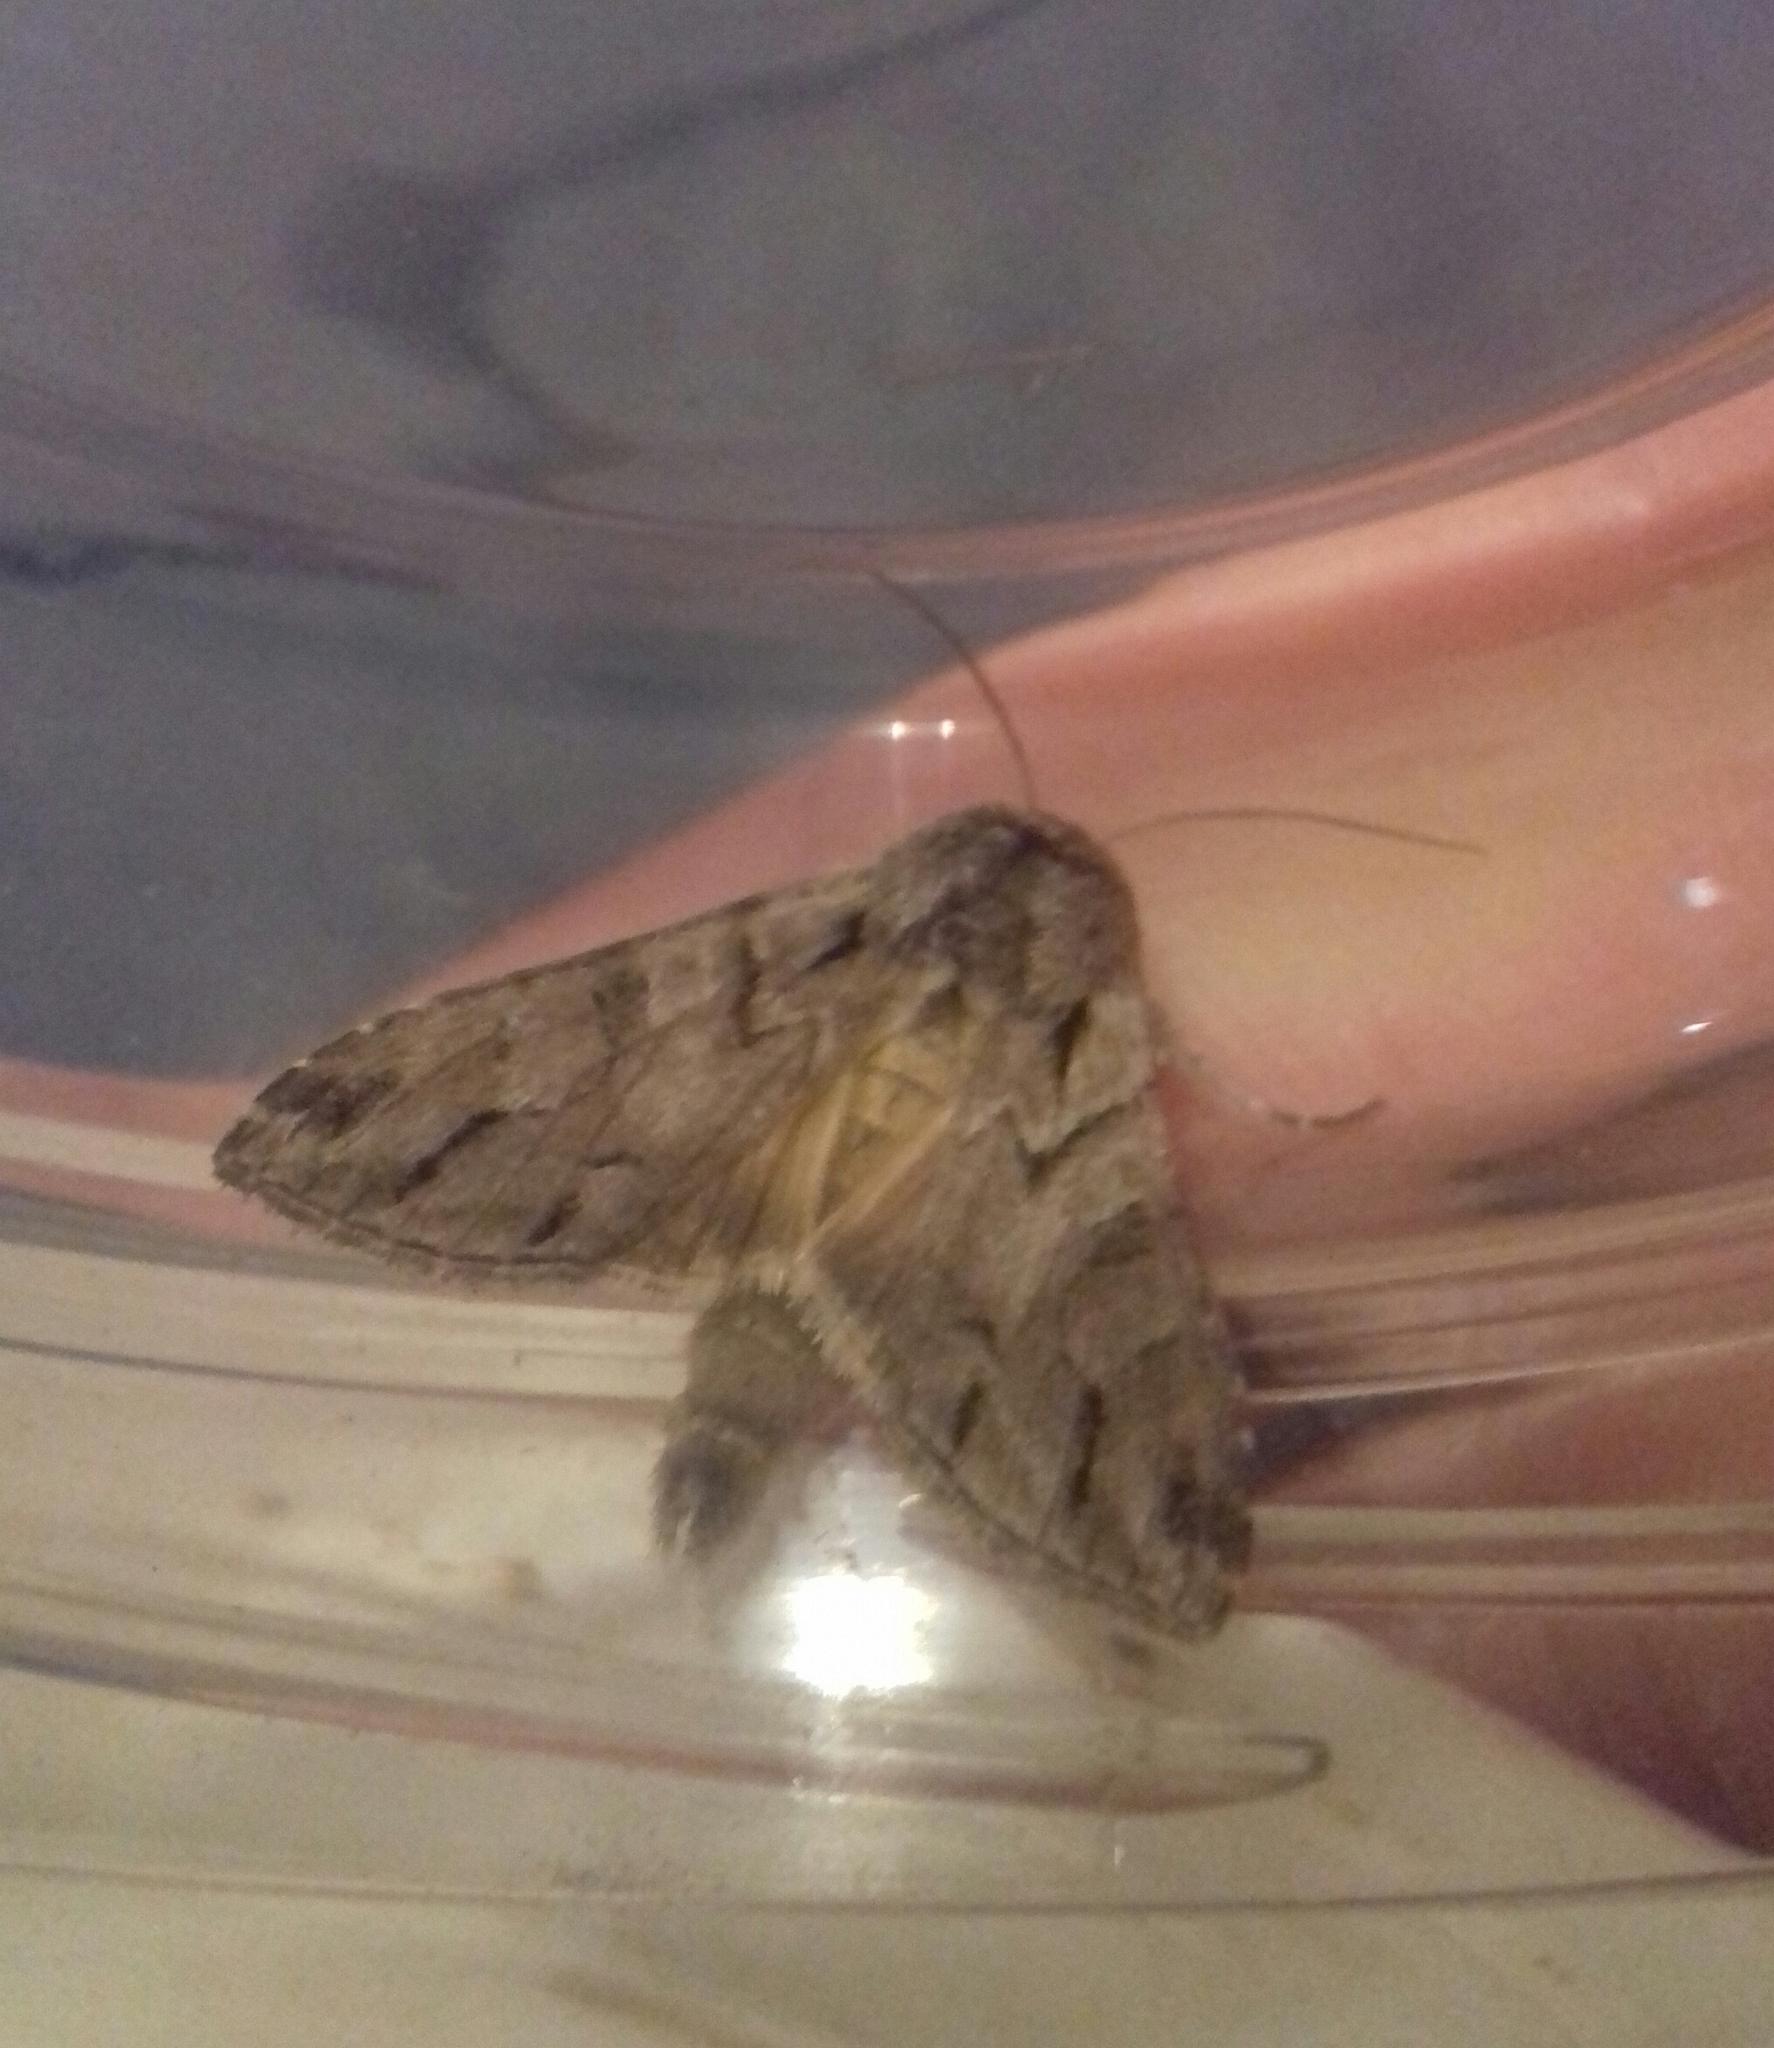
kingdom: Animalia
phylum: Arthropoda
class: Insecta
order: Lepidoptera
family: Noctuidae
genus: Cucullia
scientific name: Cucullia fraudatrix
